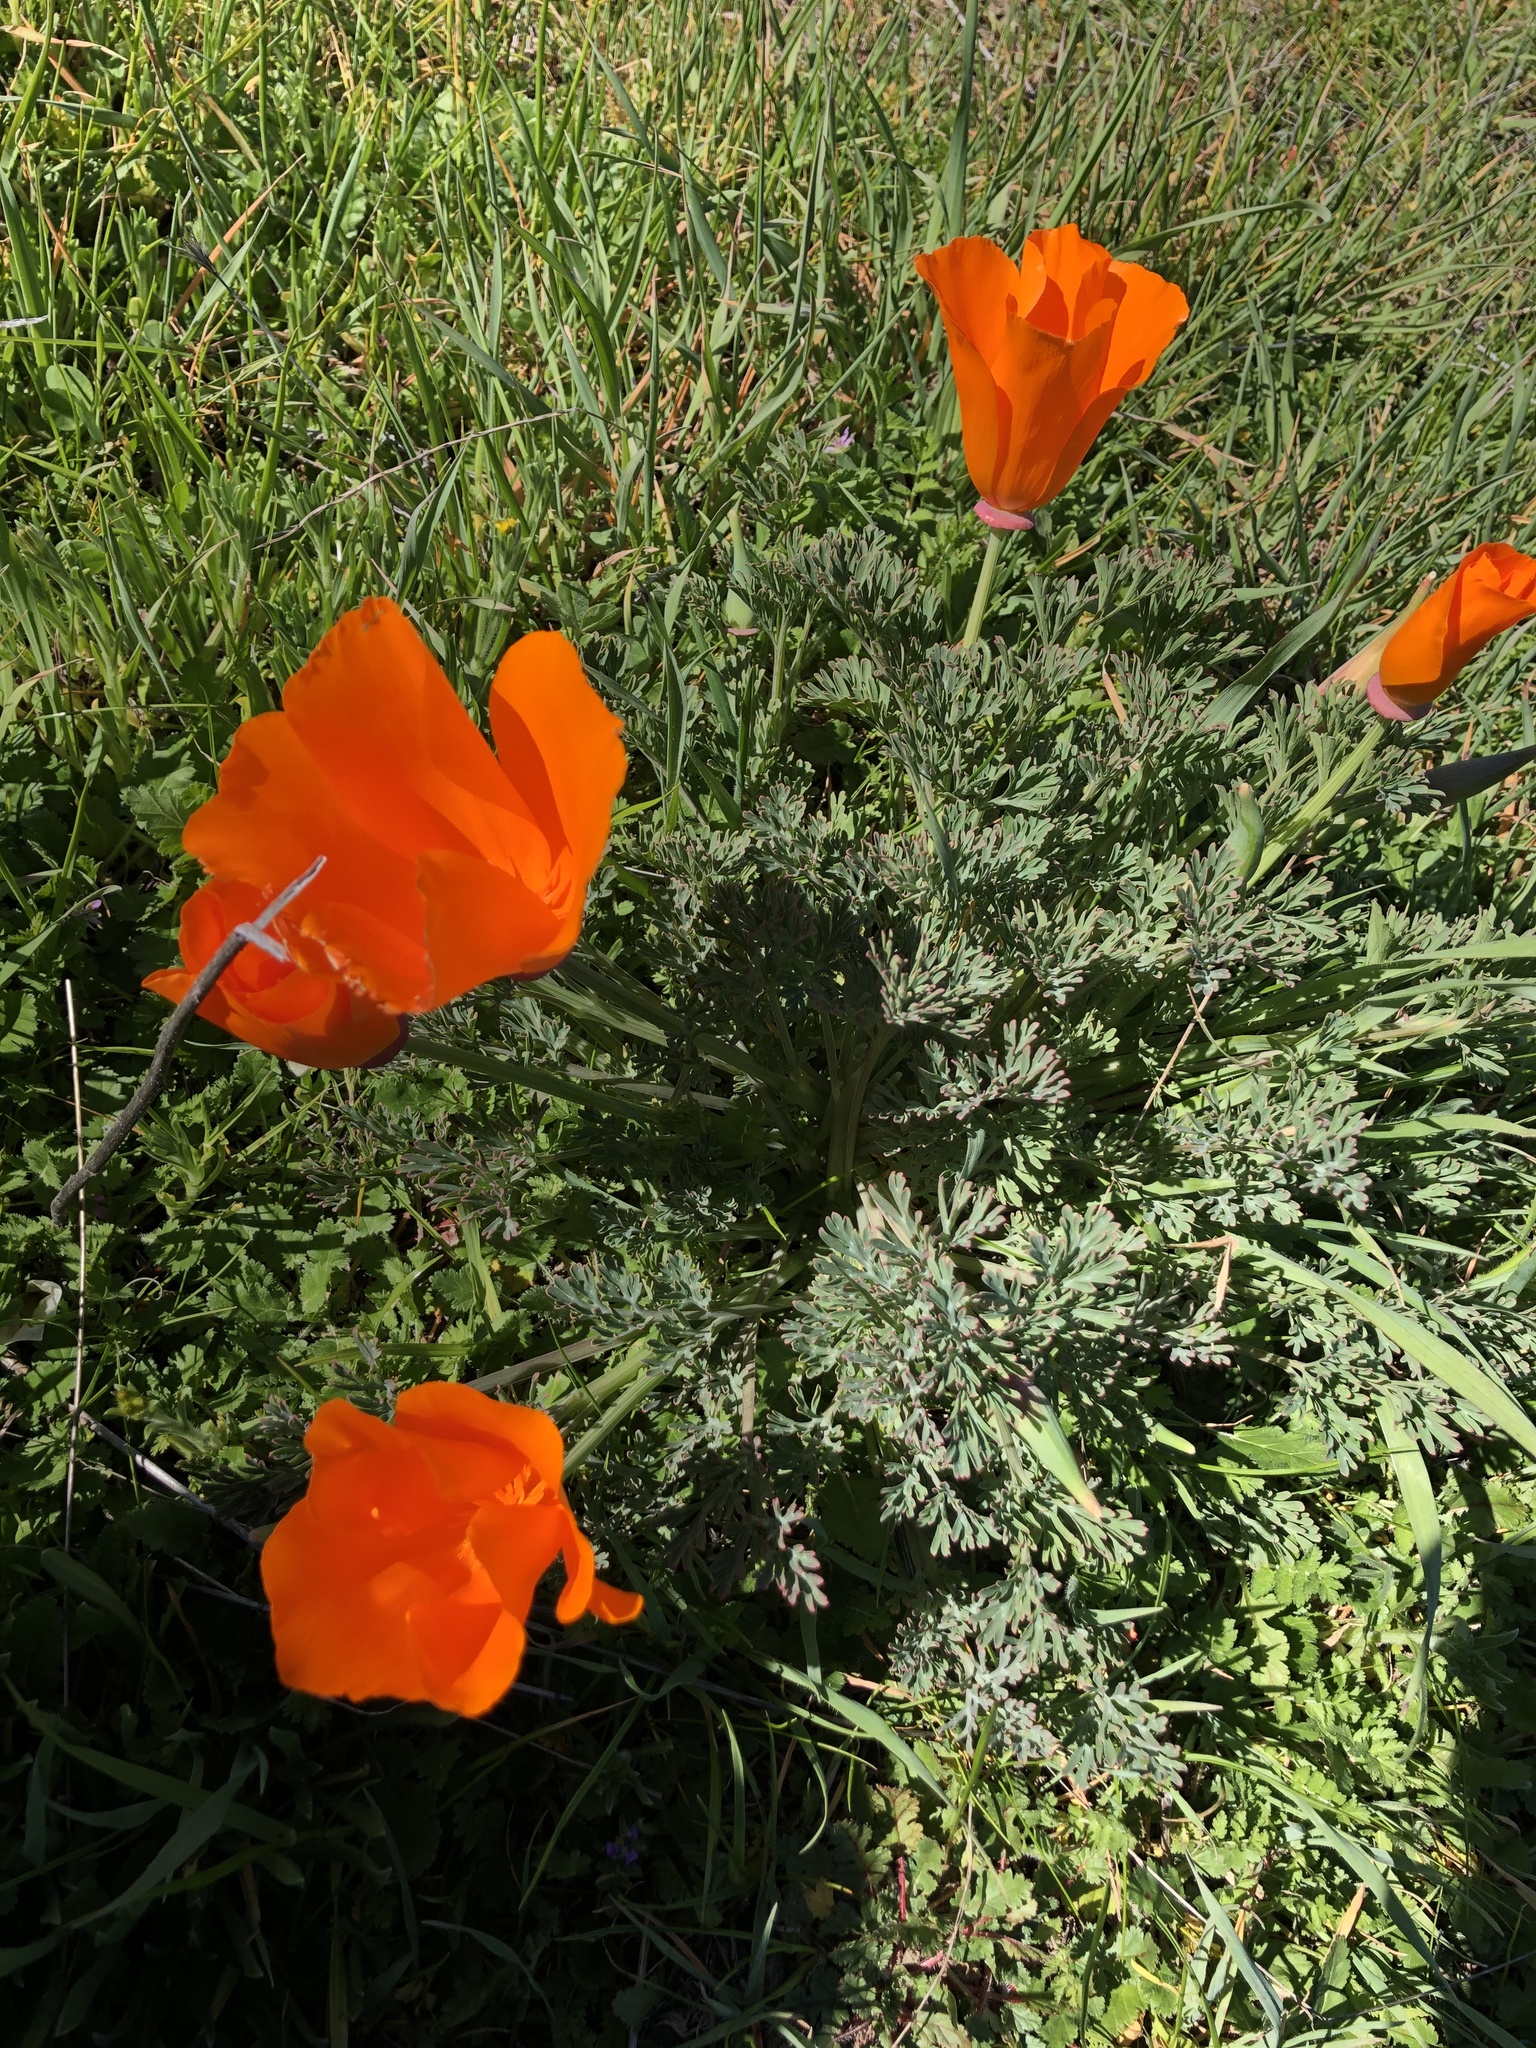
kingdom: Plantae
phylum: Tracheophyta
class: Magnoliopsida
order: Ranunculales
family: Papaveraceae
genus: Eschscholzia
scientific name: Eschscholzia californica
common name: California poppy
